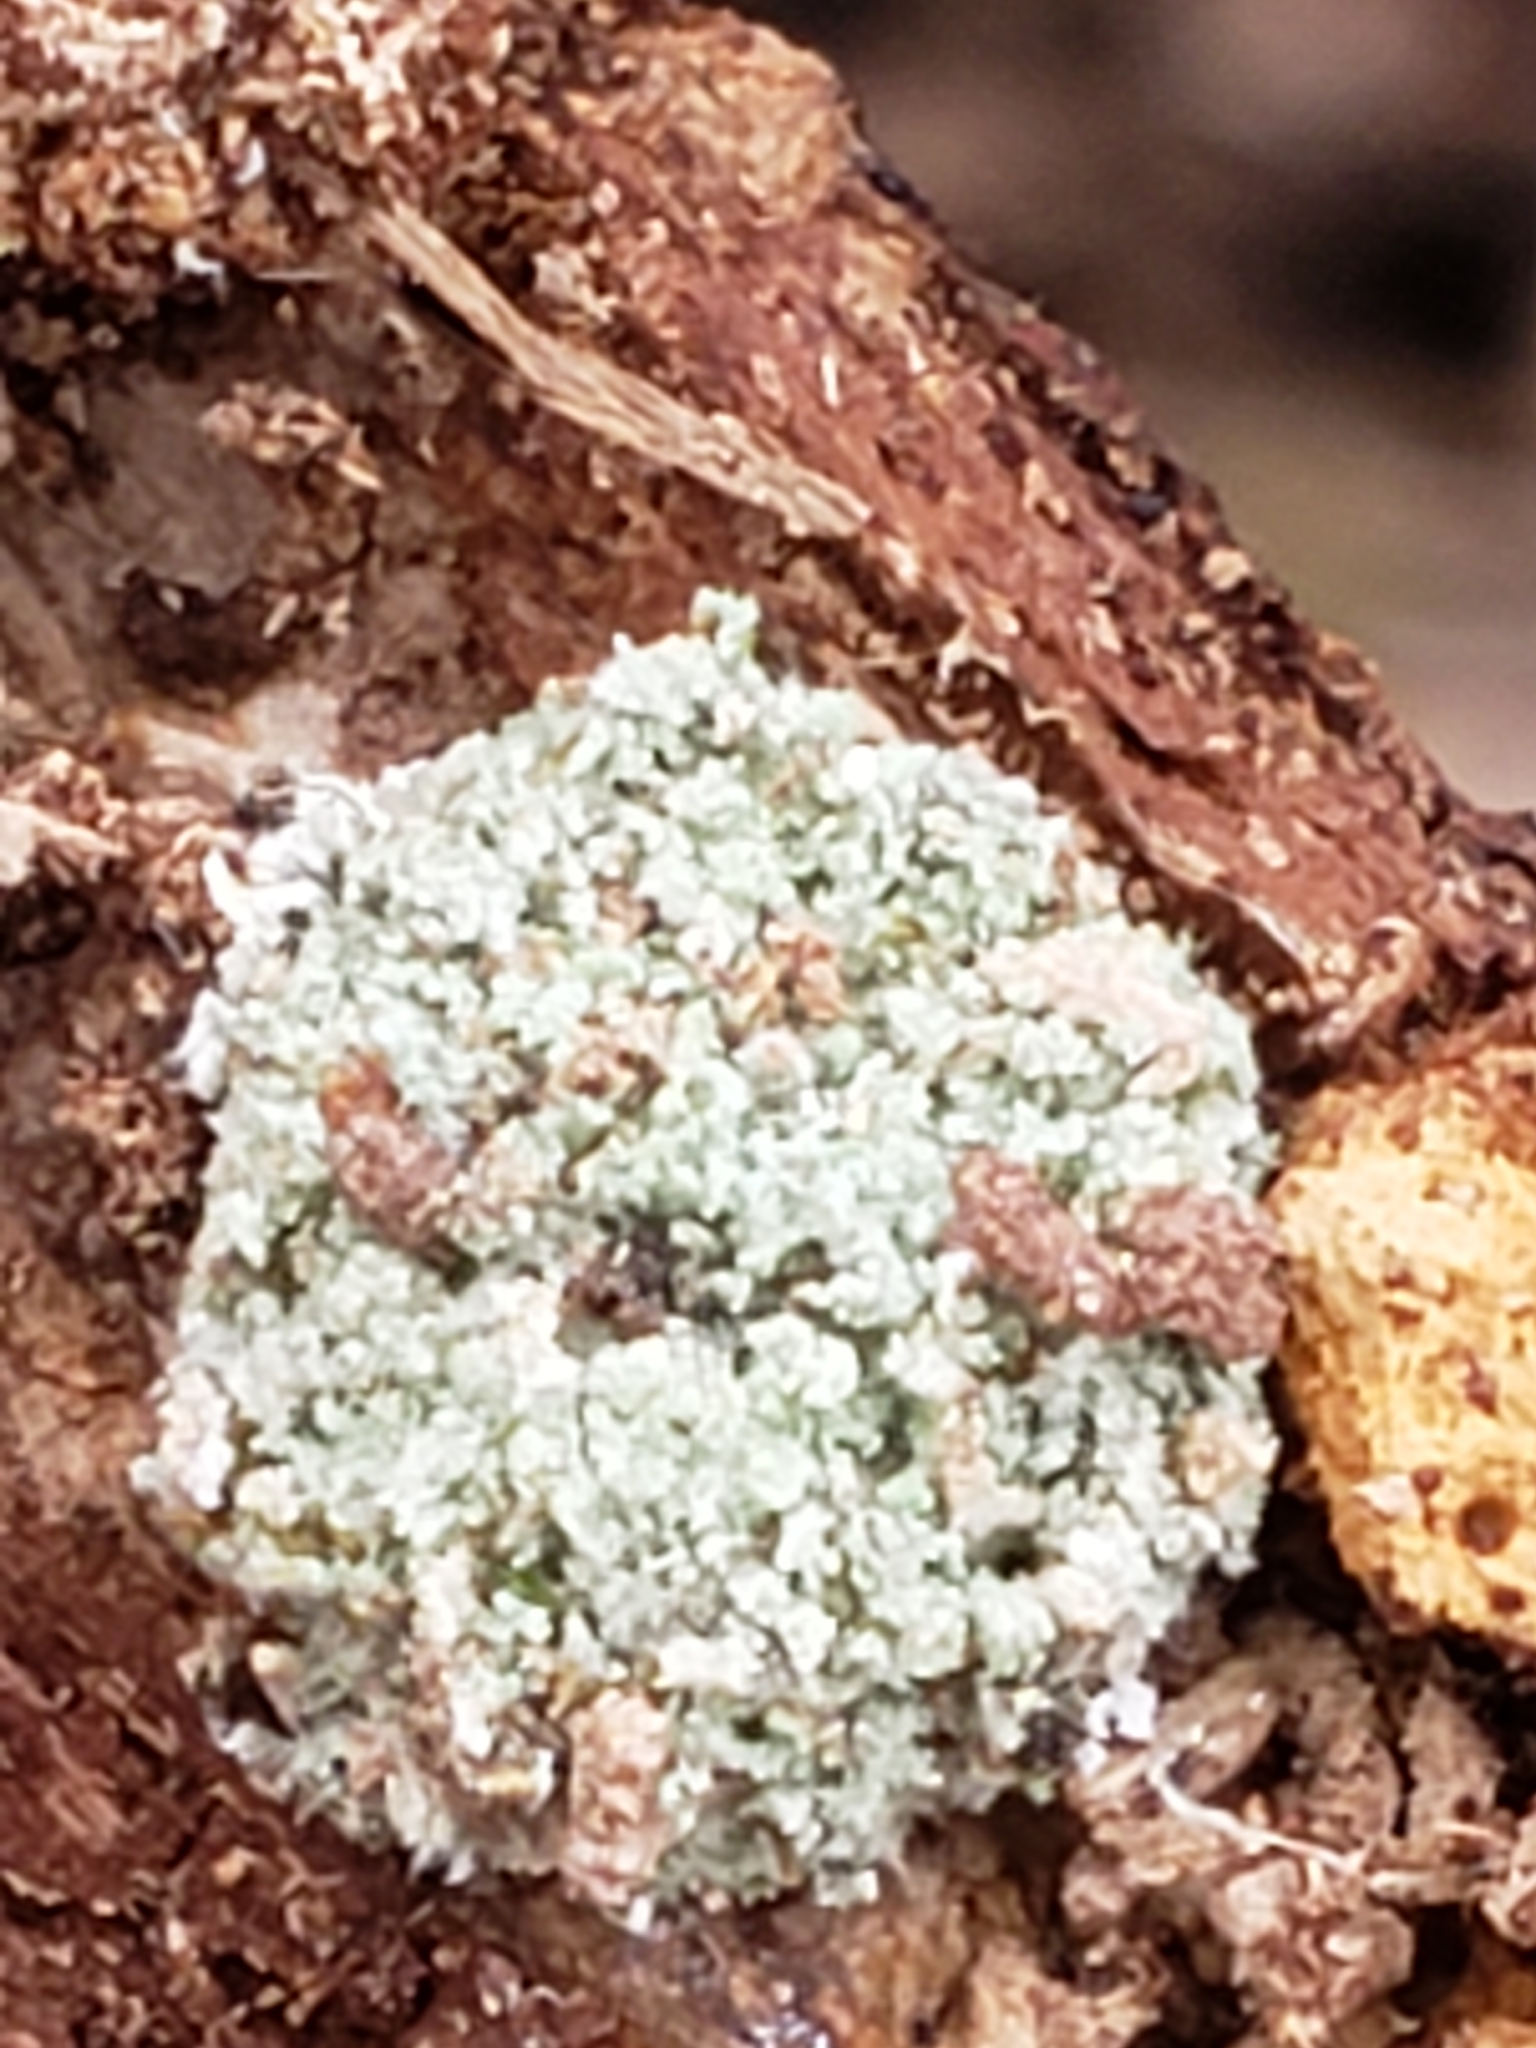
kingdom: Animalia
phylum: Arthropoda
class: Insecta
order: Neuroptera
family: Chrysopidae
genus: Leucochrysa
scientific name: Leucochrysa pavida
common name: Lichen-carrying green lacewing
